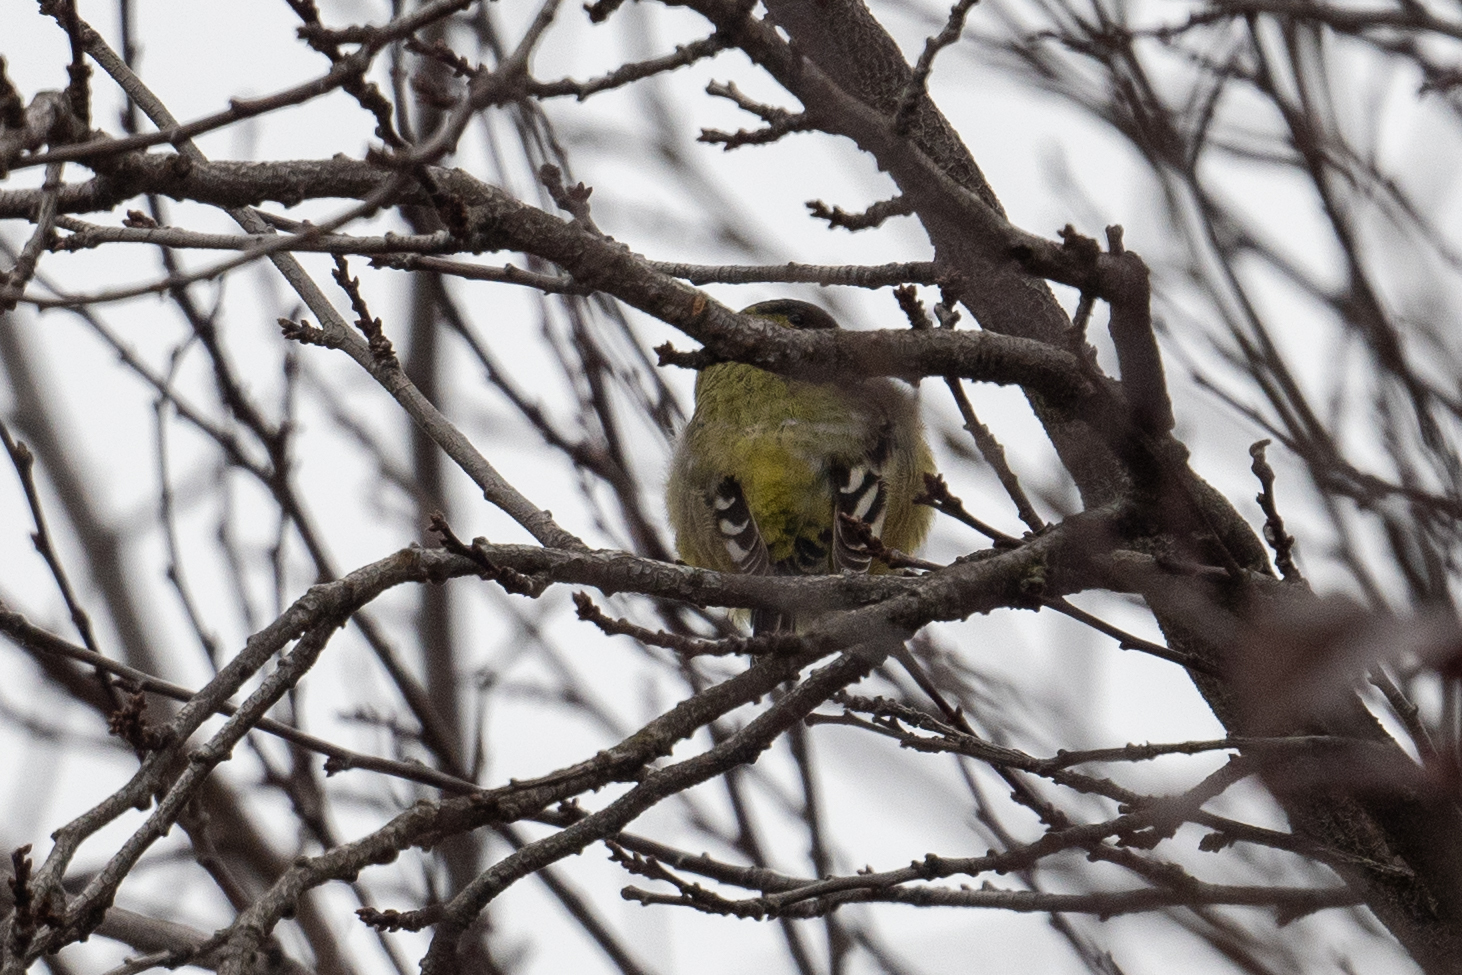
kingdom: Animalia
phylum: Chordata
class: Aves
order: Passeriformes
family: Fringillidae
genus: Spinus
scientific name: Spinus psaltria
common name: Lesser goldfinch
